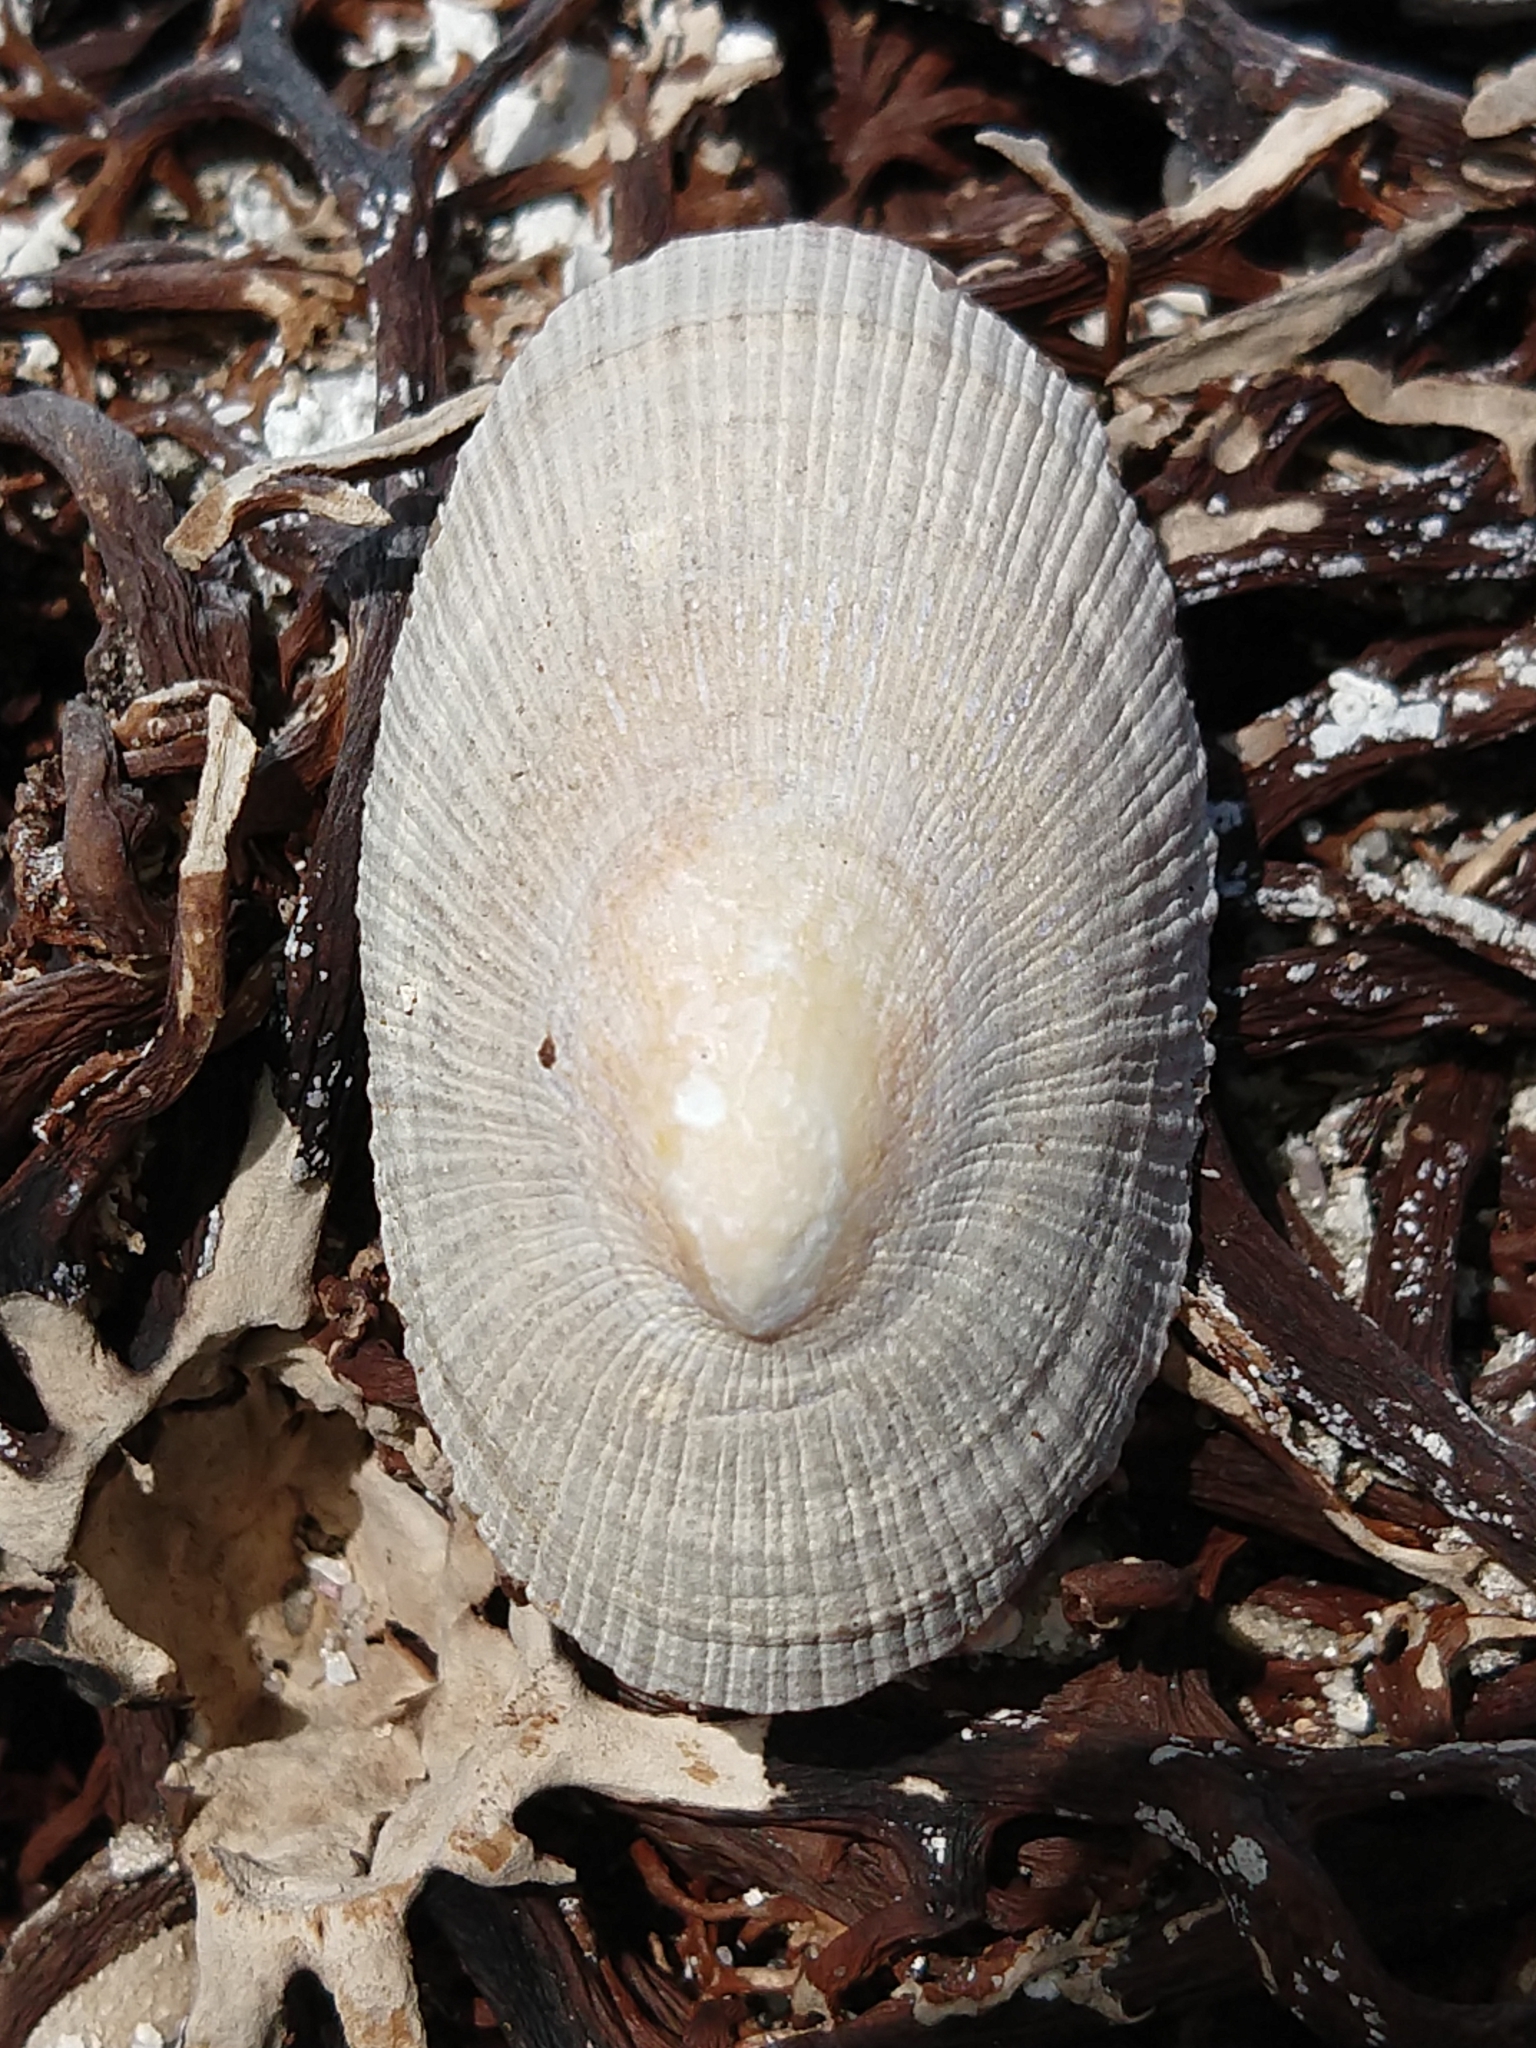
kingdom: Animalia
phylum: Mollusca
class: Gastropoda
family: Patellidae
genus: Cymbula
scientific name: Cymbula compressa
